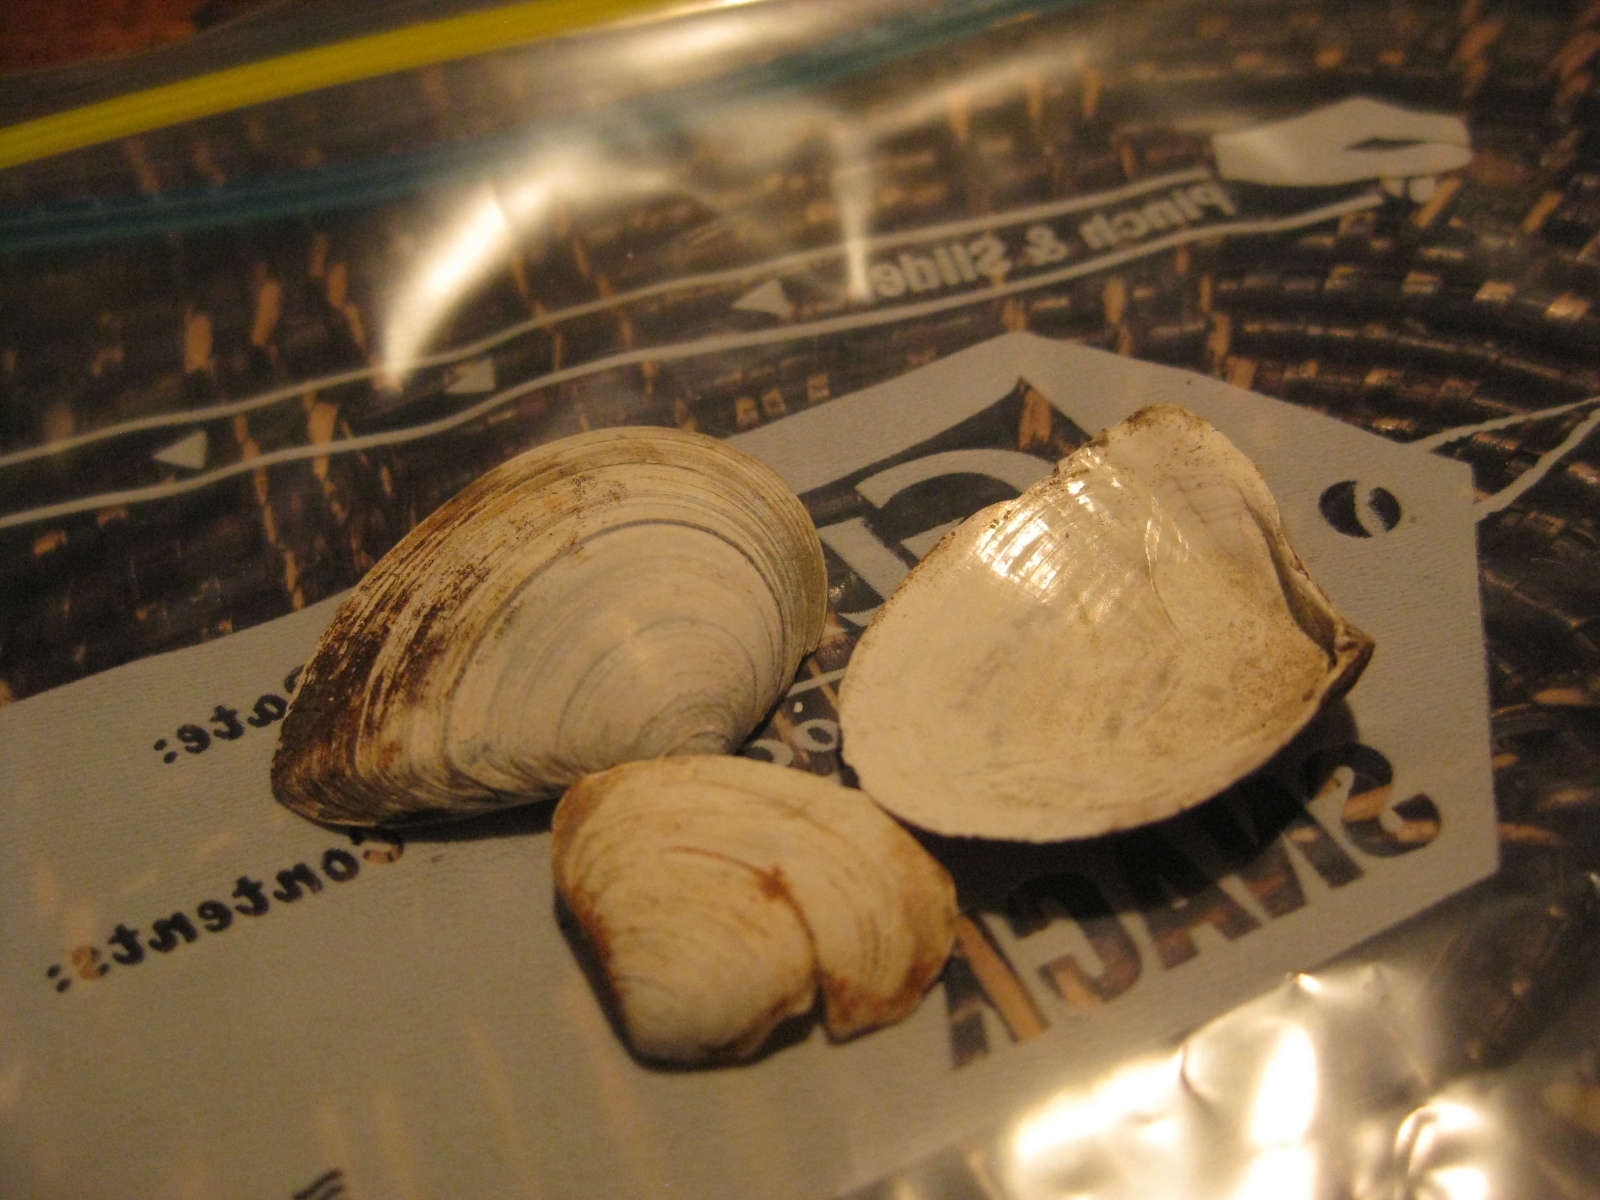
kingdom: Animalia
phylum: Mollusca
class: Bivalvia
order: Cardiida
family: Tellinidae
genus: Macomona
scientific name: Macomona liliana
